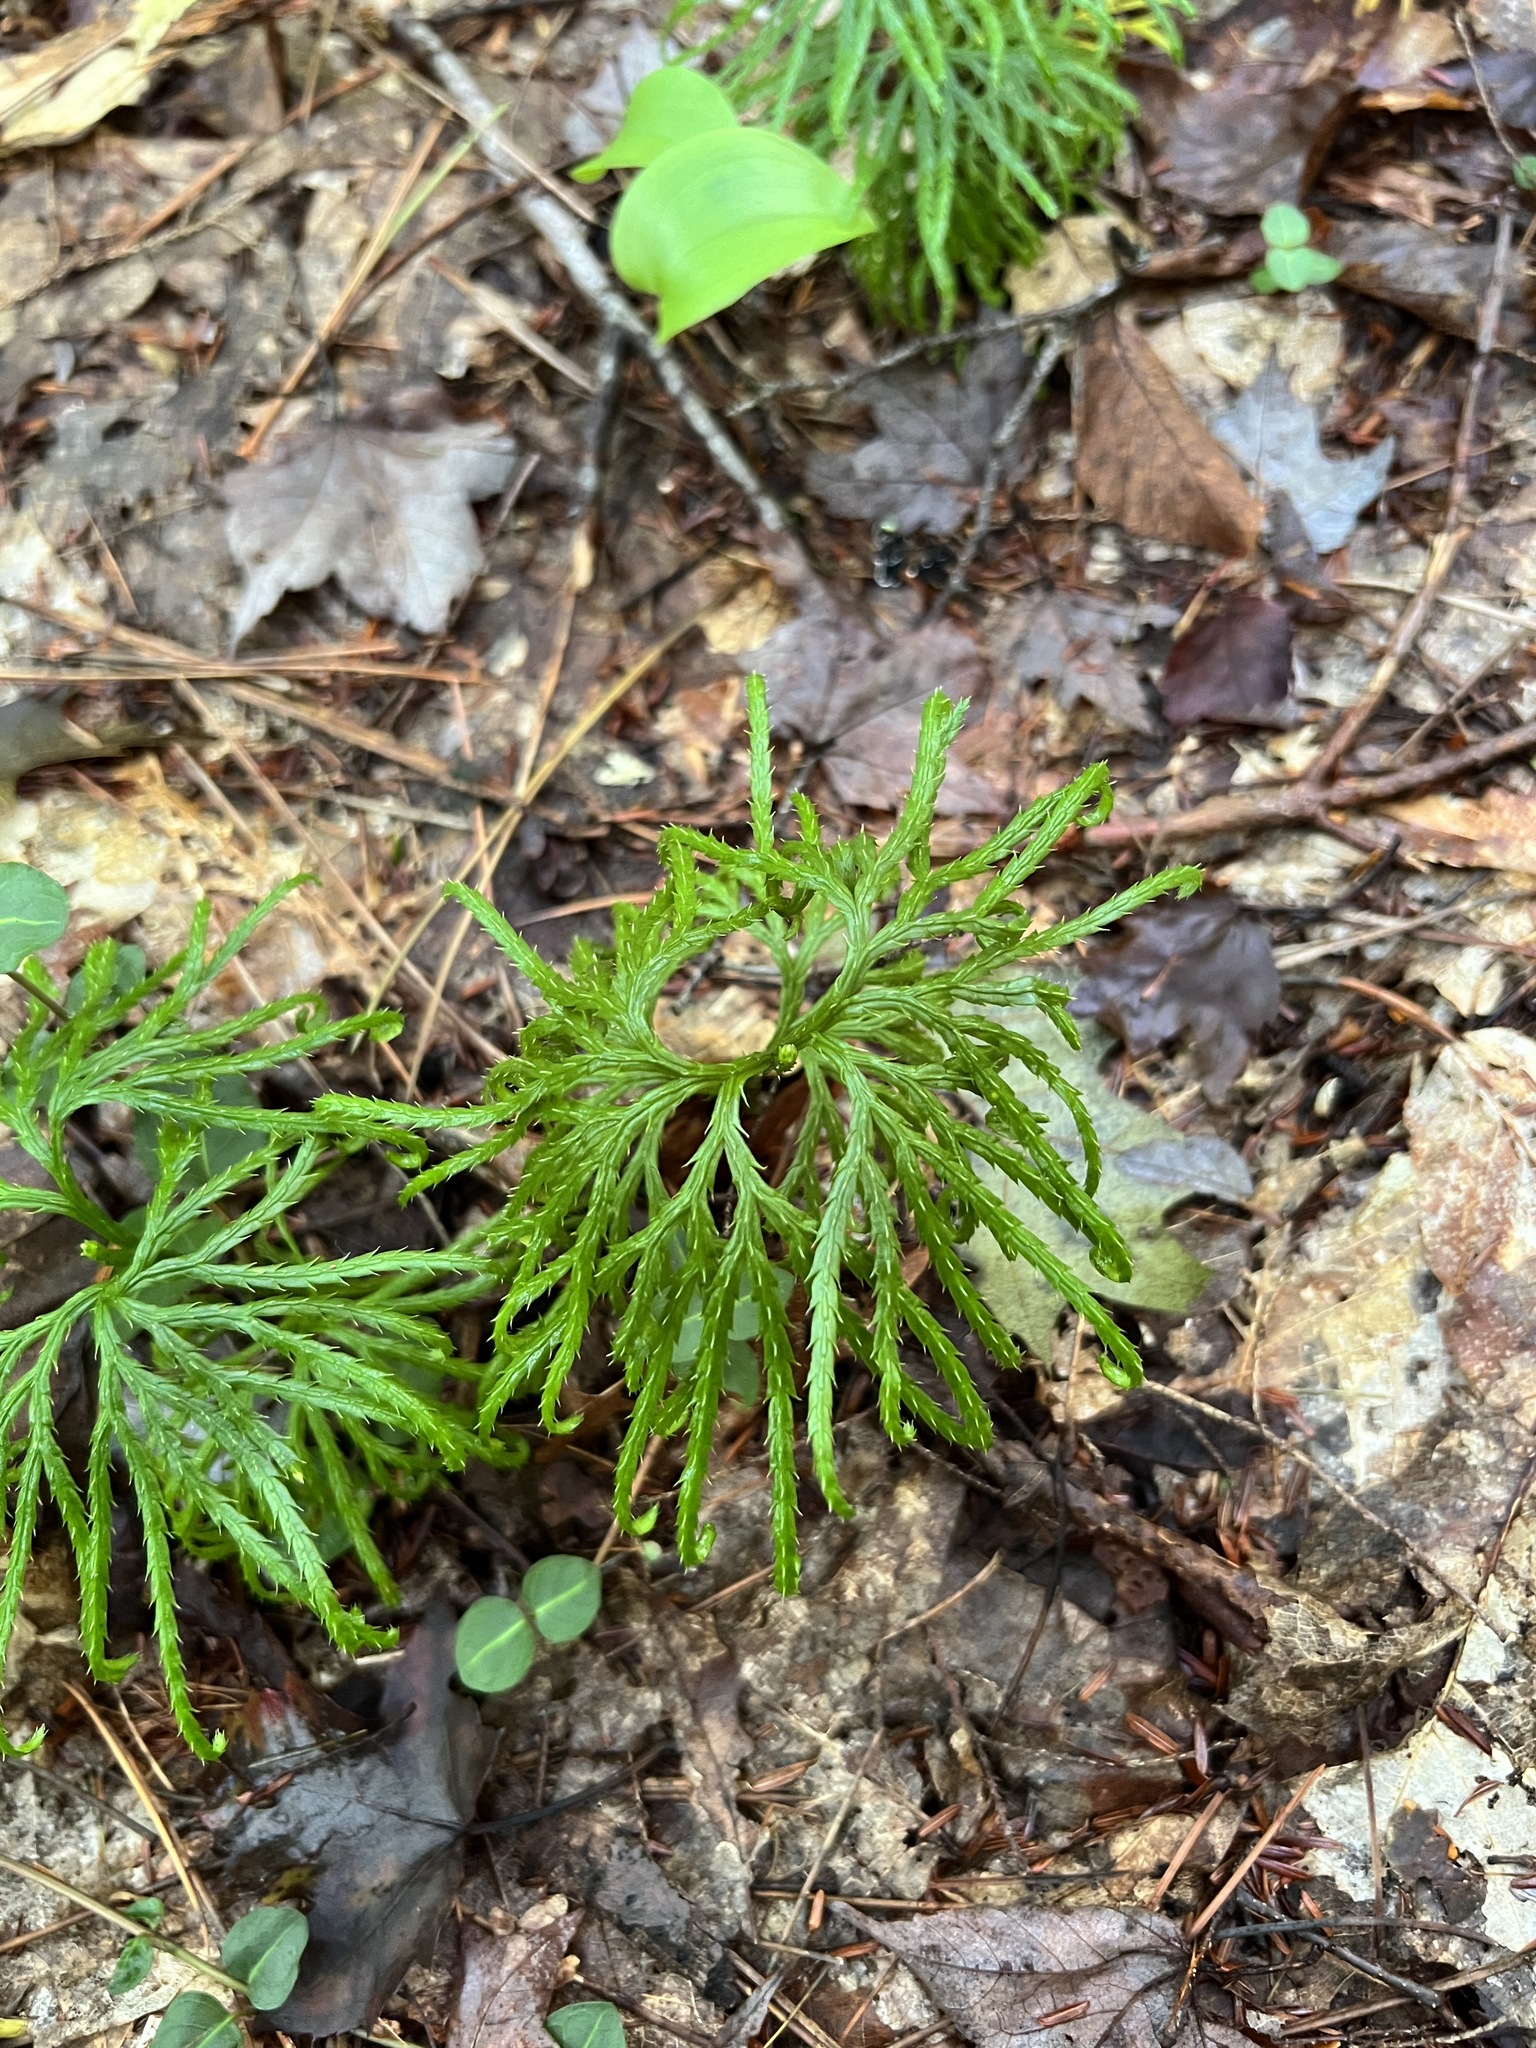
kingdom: Plantae
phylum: Tracheophyta
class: Lycopodiopsida
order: Lycopodiales
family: Lycopodiaceae
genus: Diphasiastrum
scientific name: Diphasiastrum digitatum
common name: Southern running-pine
